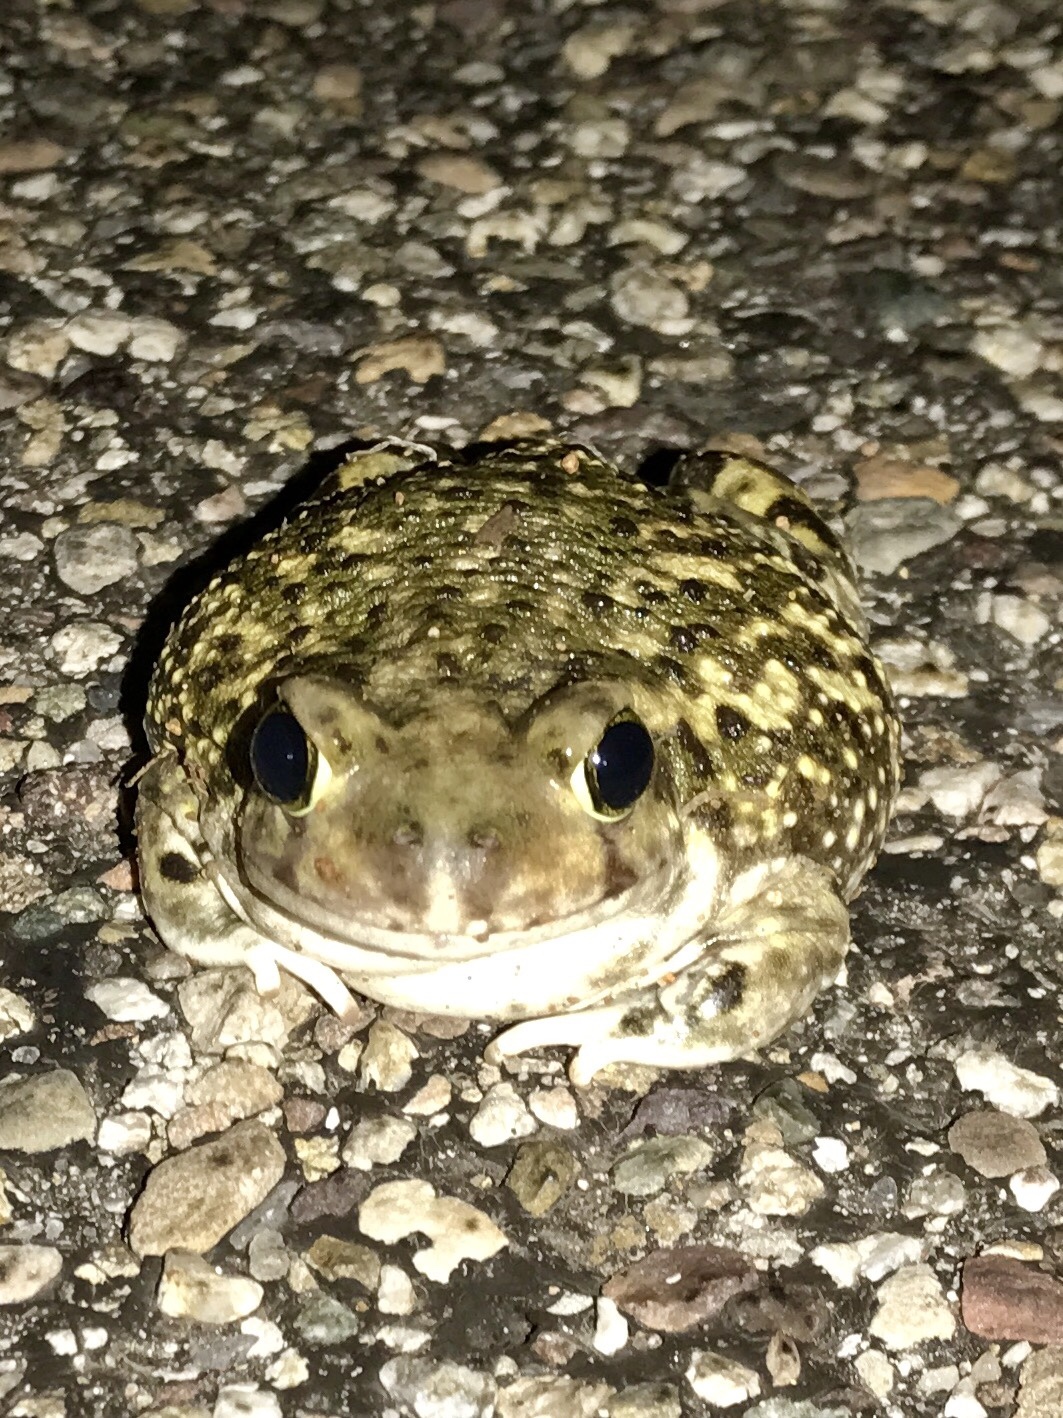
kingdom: Animalia
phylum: Chordata
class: Amphibia
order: Anura
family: Scaphiopodidae
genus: Scaphiopus
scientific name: Scaphiopus couchii
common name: Couch's spadefoot toad
